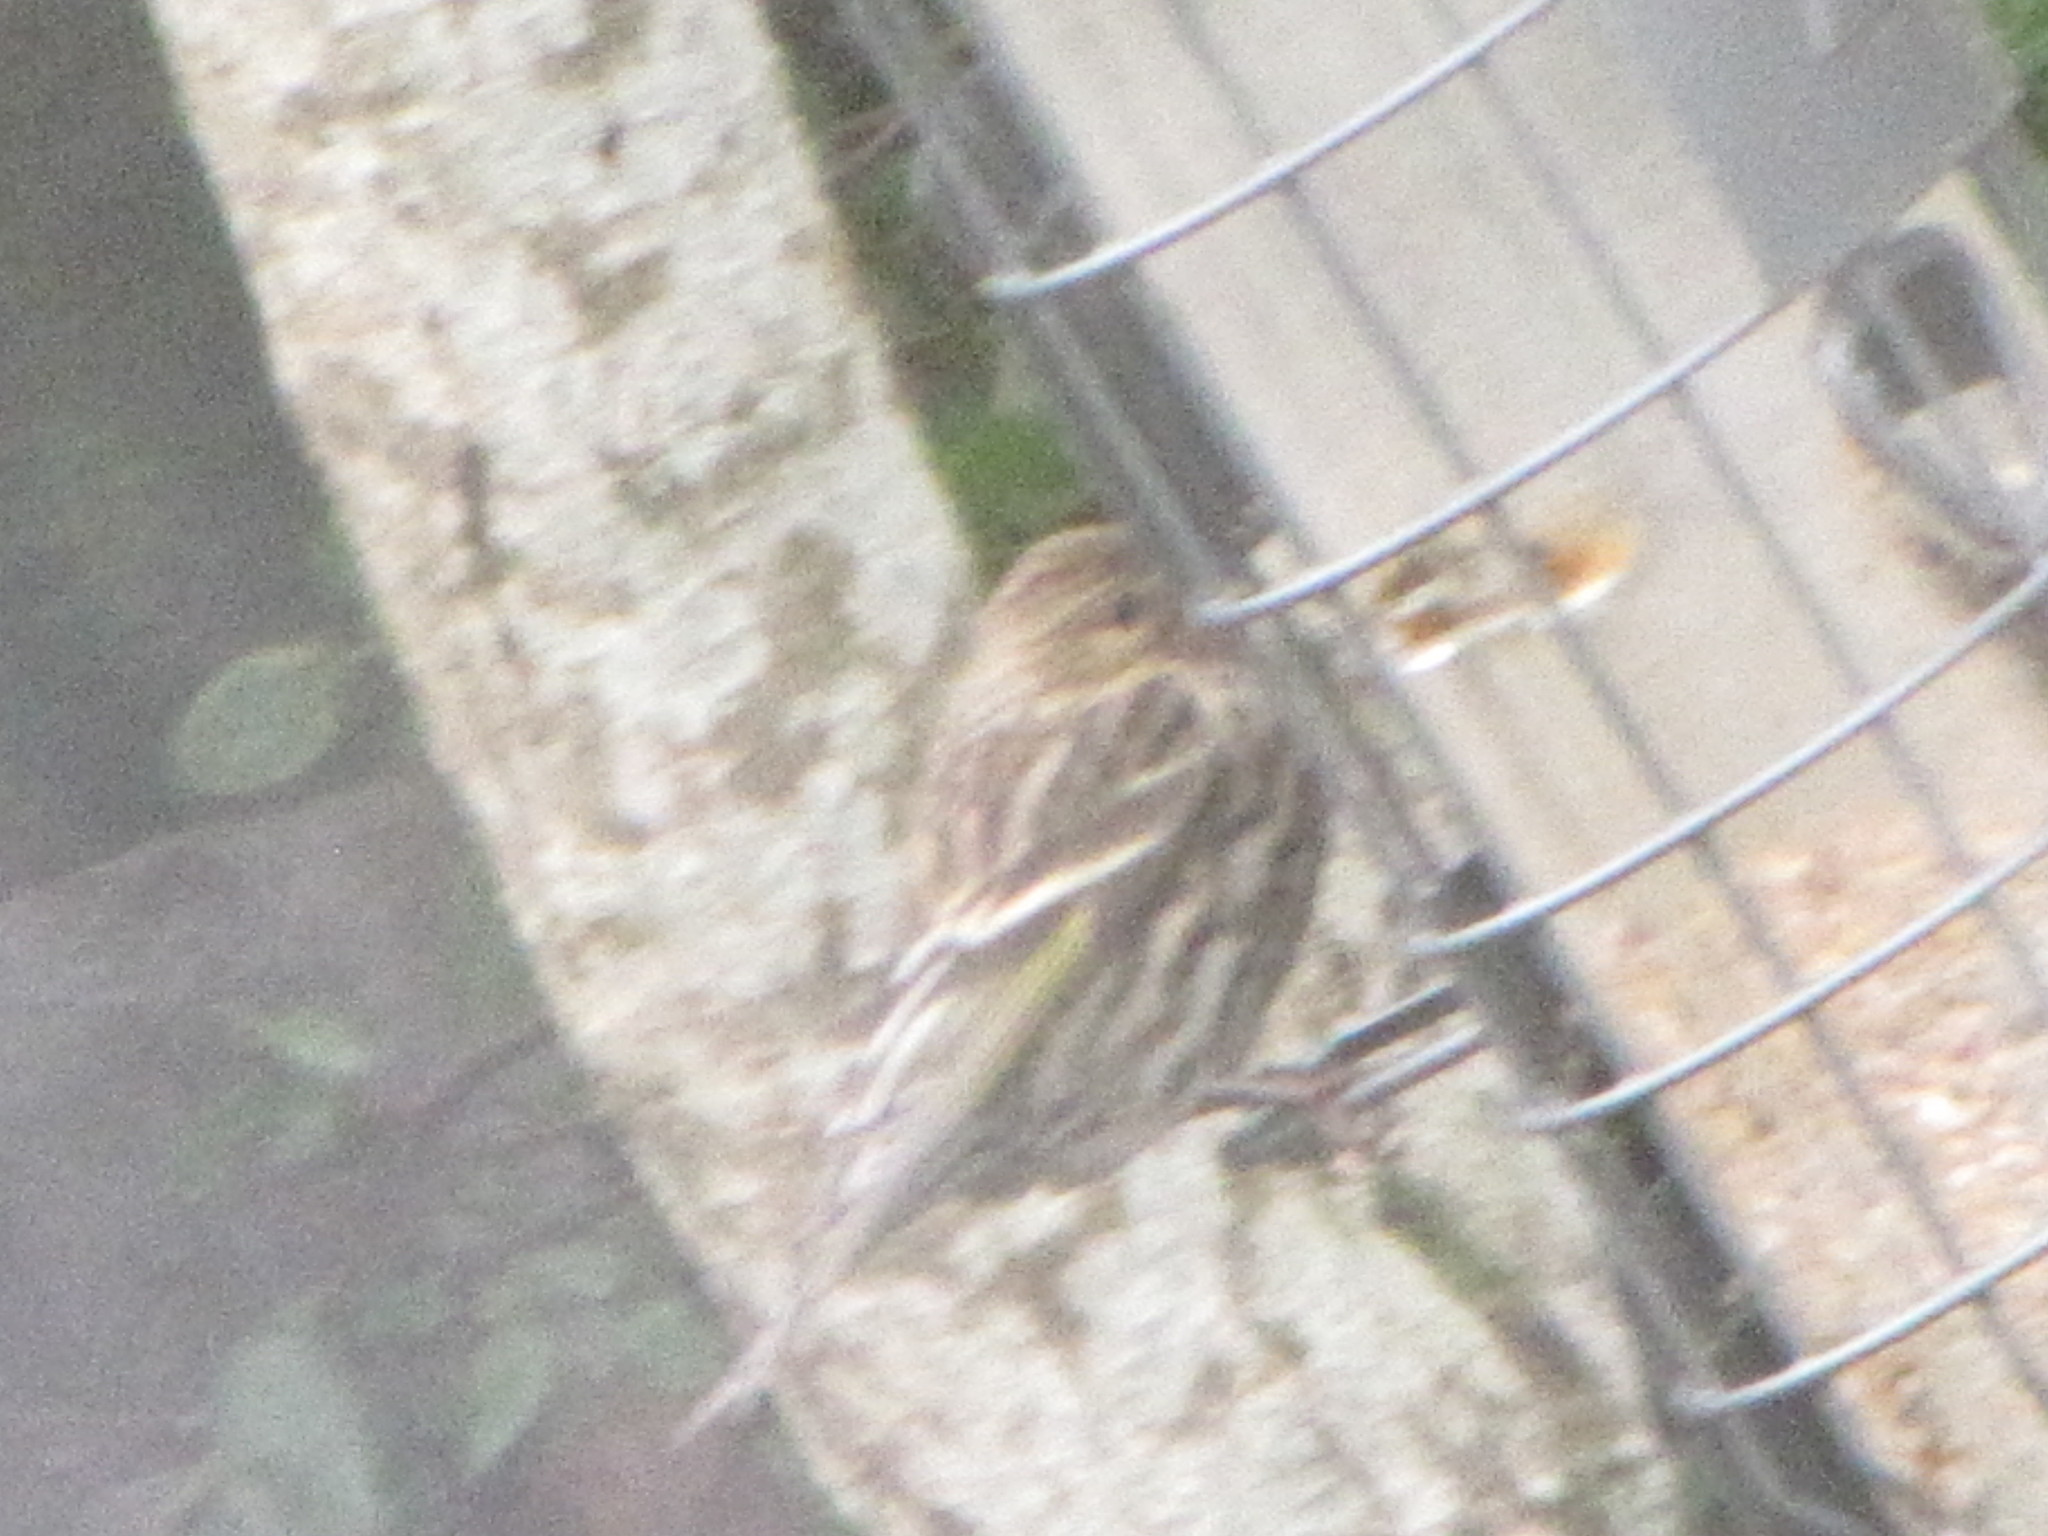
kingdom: Animalia
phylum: Chordata
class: Aves
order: Passeriformes
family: Fringillidae
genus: Spinus
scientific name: Spinus pinus
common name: Pine siskin
